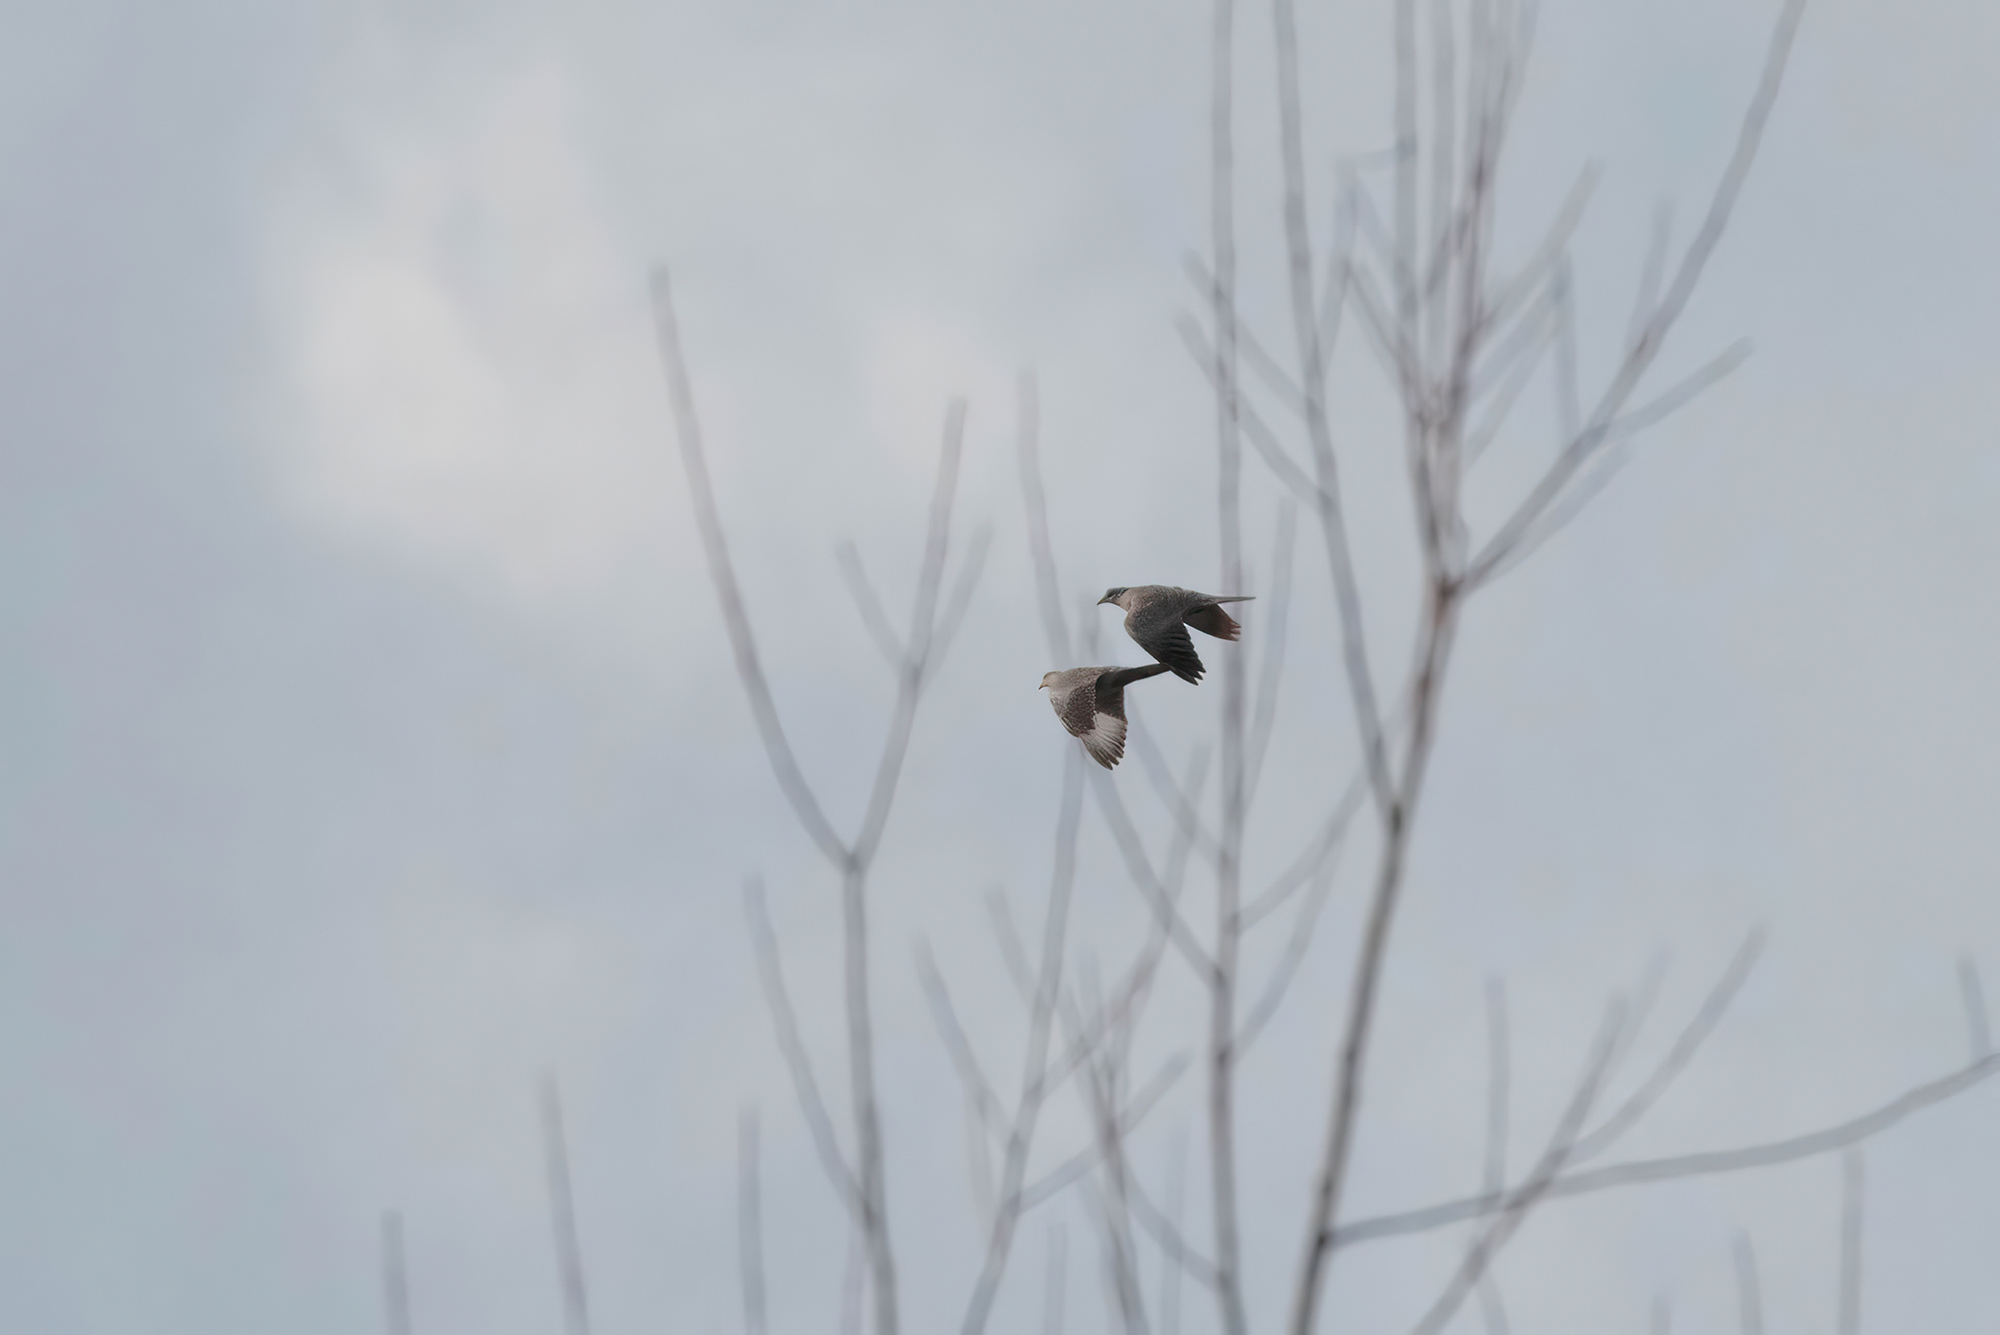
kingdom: Animalia
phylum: Chordata
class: Aves
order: Columbiformes
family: Columbidae
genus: Streptopelia
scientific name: Streptopelia decaocto
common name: Eurasian collared dove
